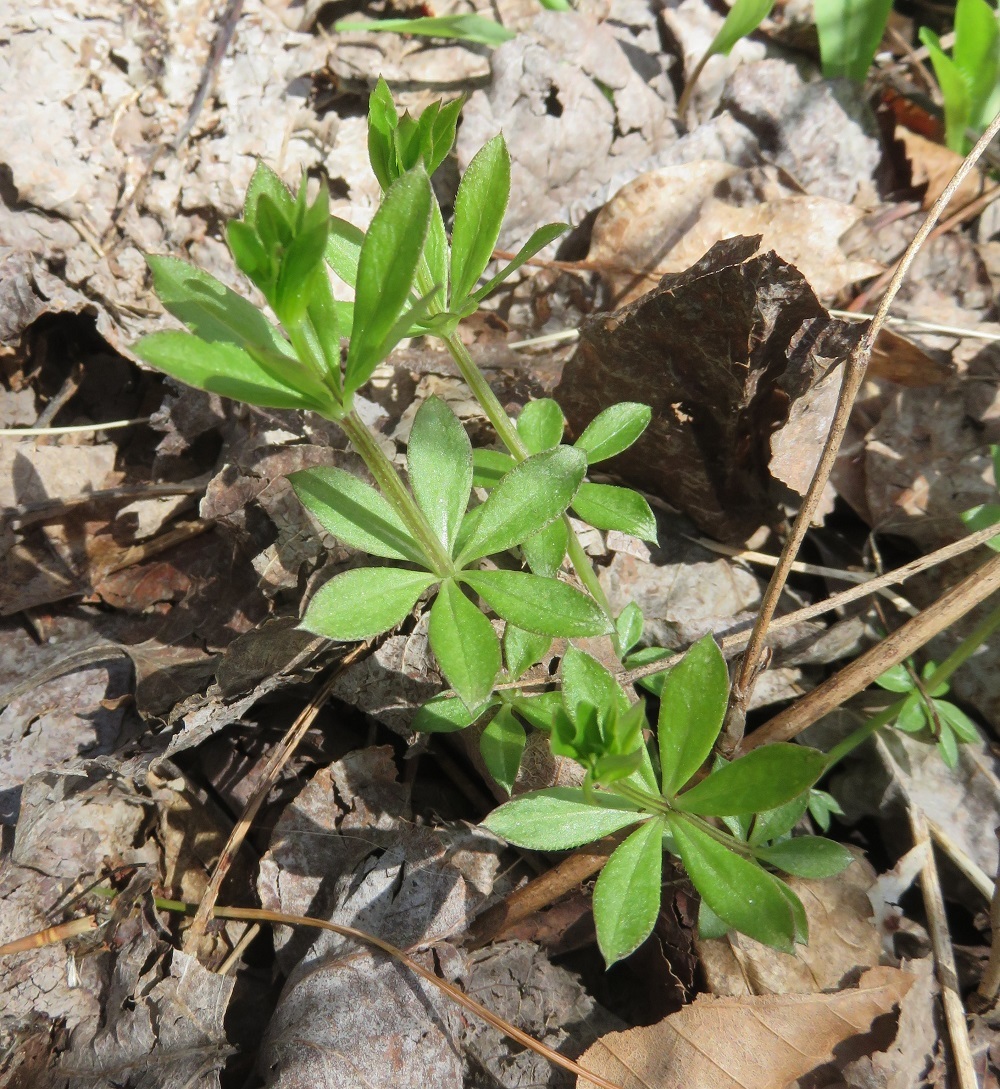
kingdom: Plantae
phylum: Tracheophyta
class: Magnoliopsida
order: Gentianales
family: Rubiaceae
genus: Galium
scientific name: Galium triflorum
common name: Fragrant bedstraw
